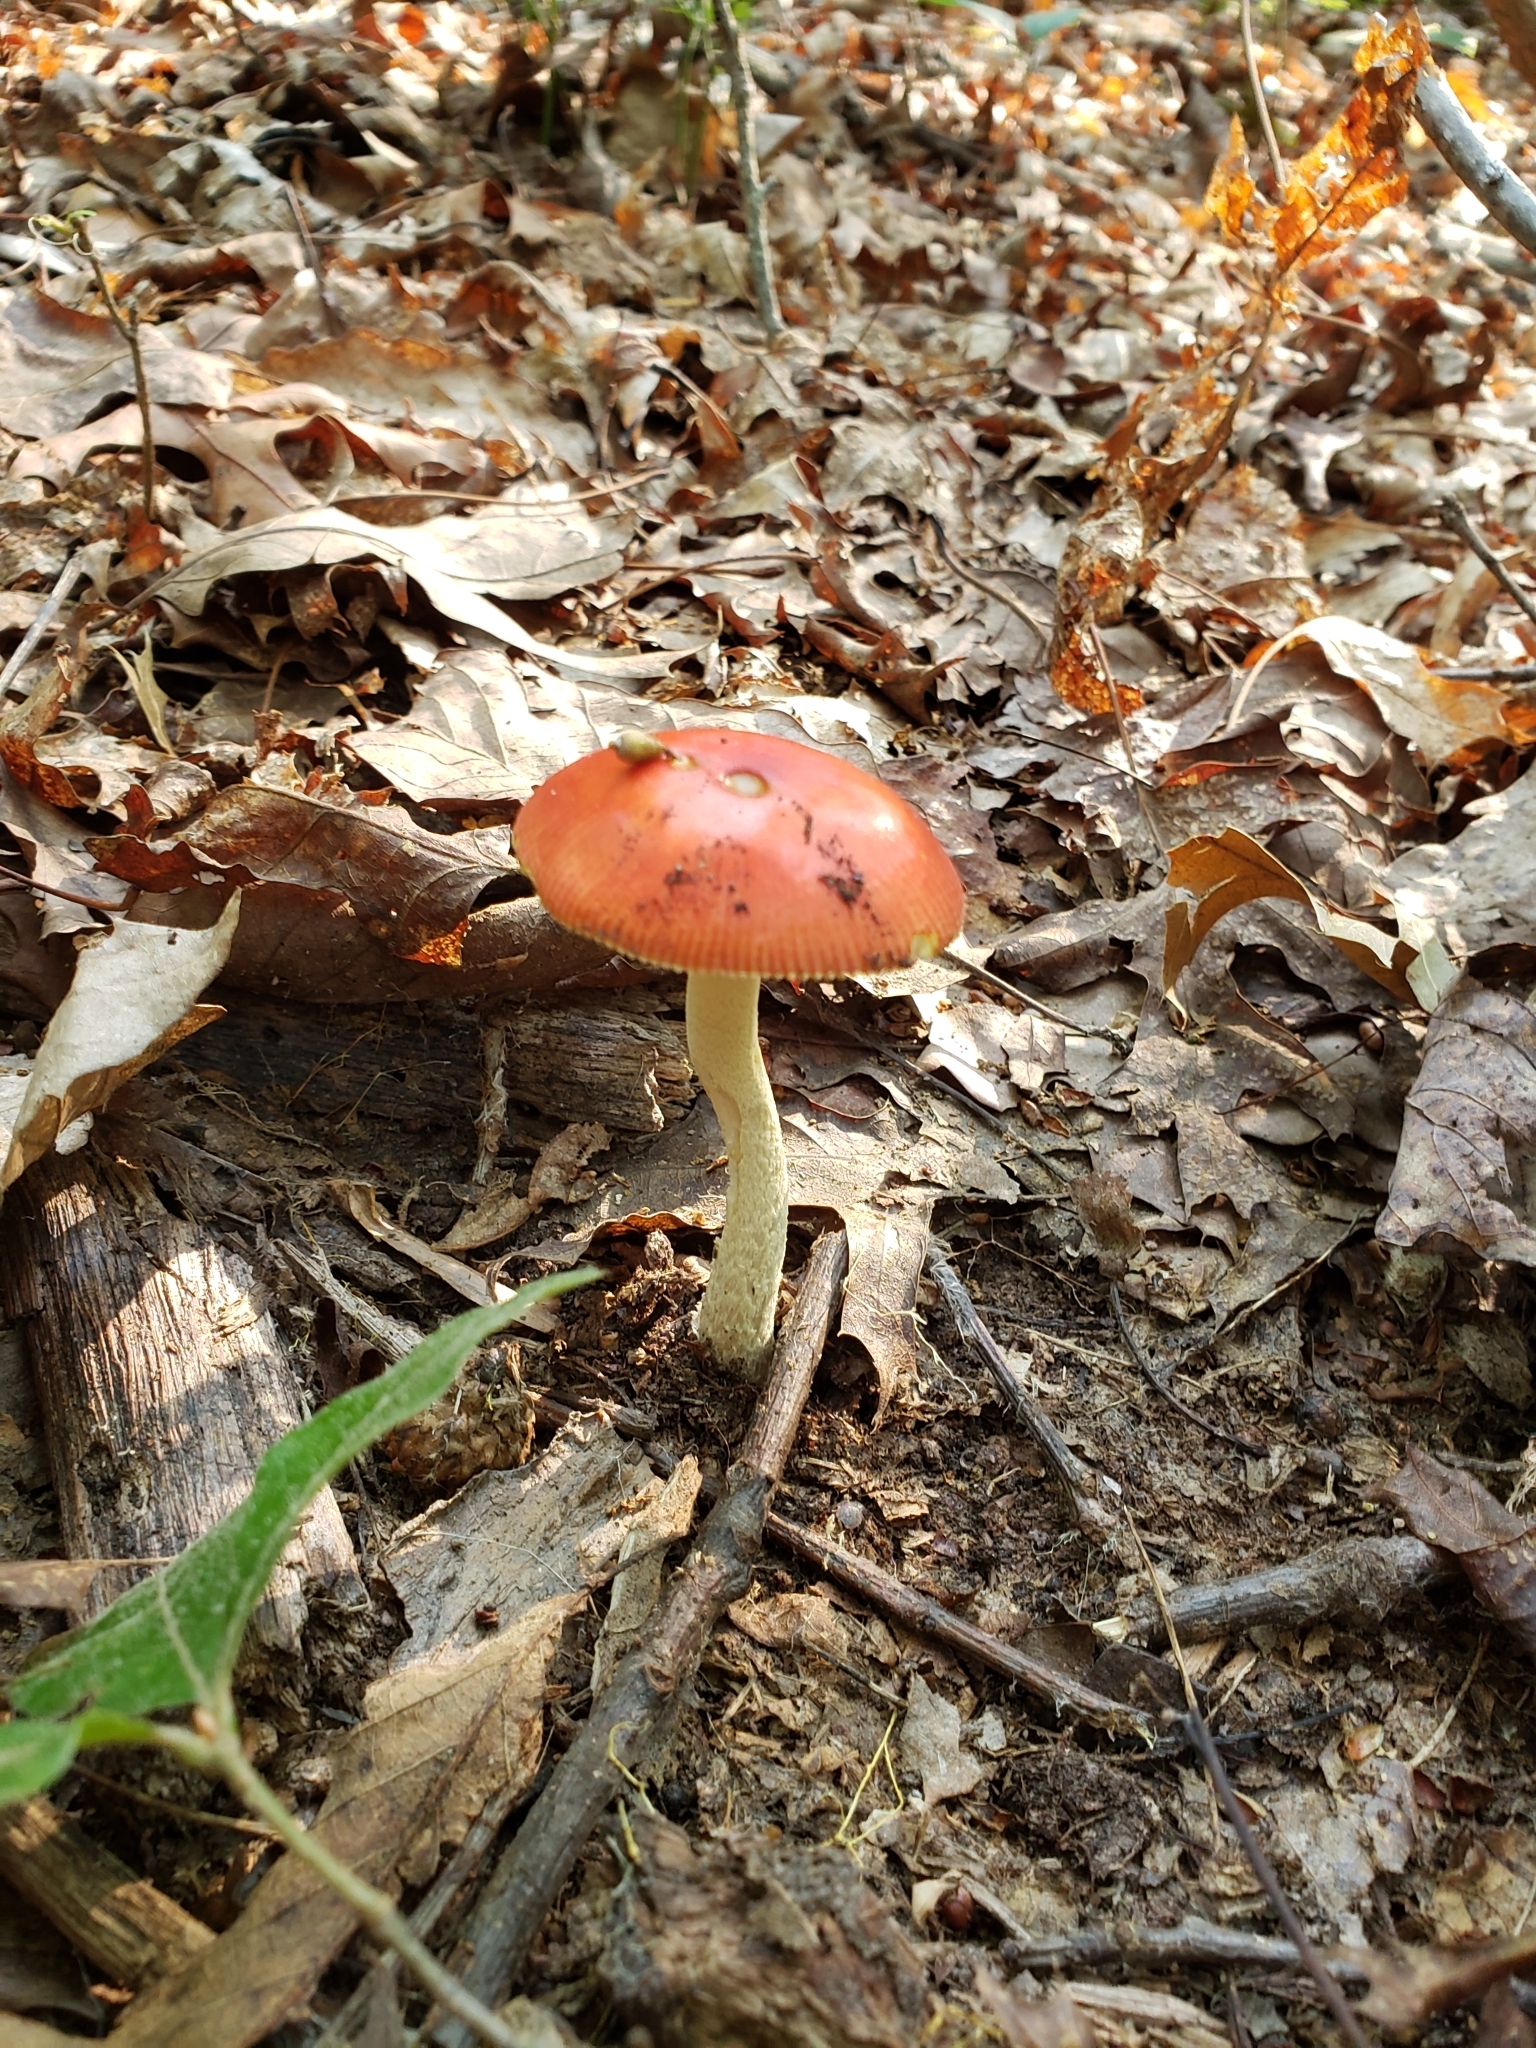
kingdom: Fungi
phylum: Basidiomycota
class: Agaricomycetes
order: Agaricales
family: Amanitaceae
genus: Amanita
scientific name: Amanita parcivolvata
